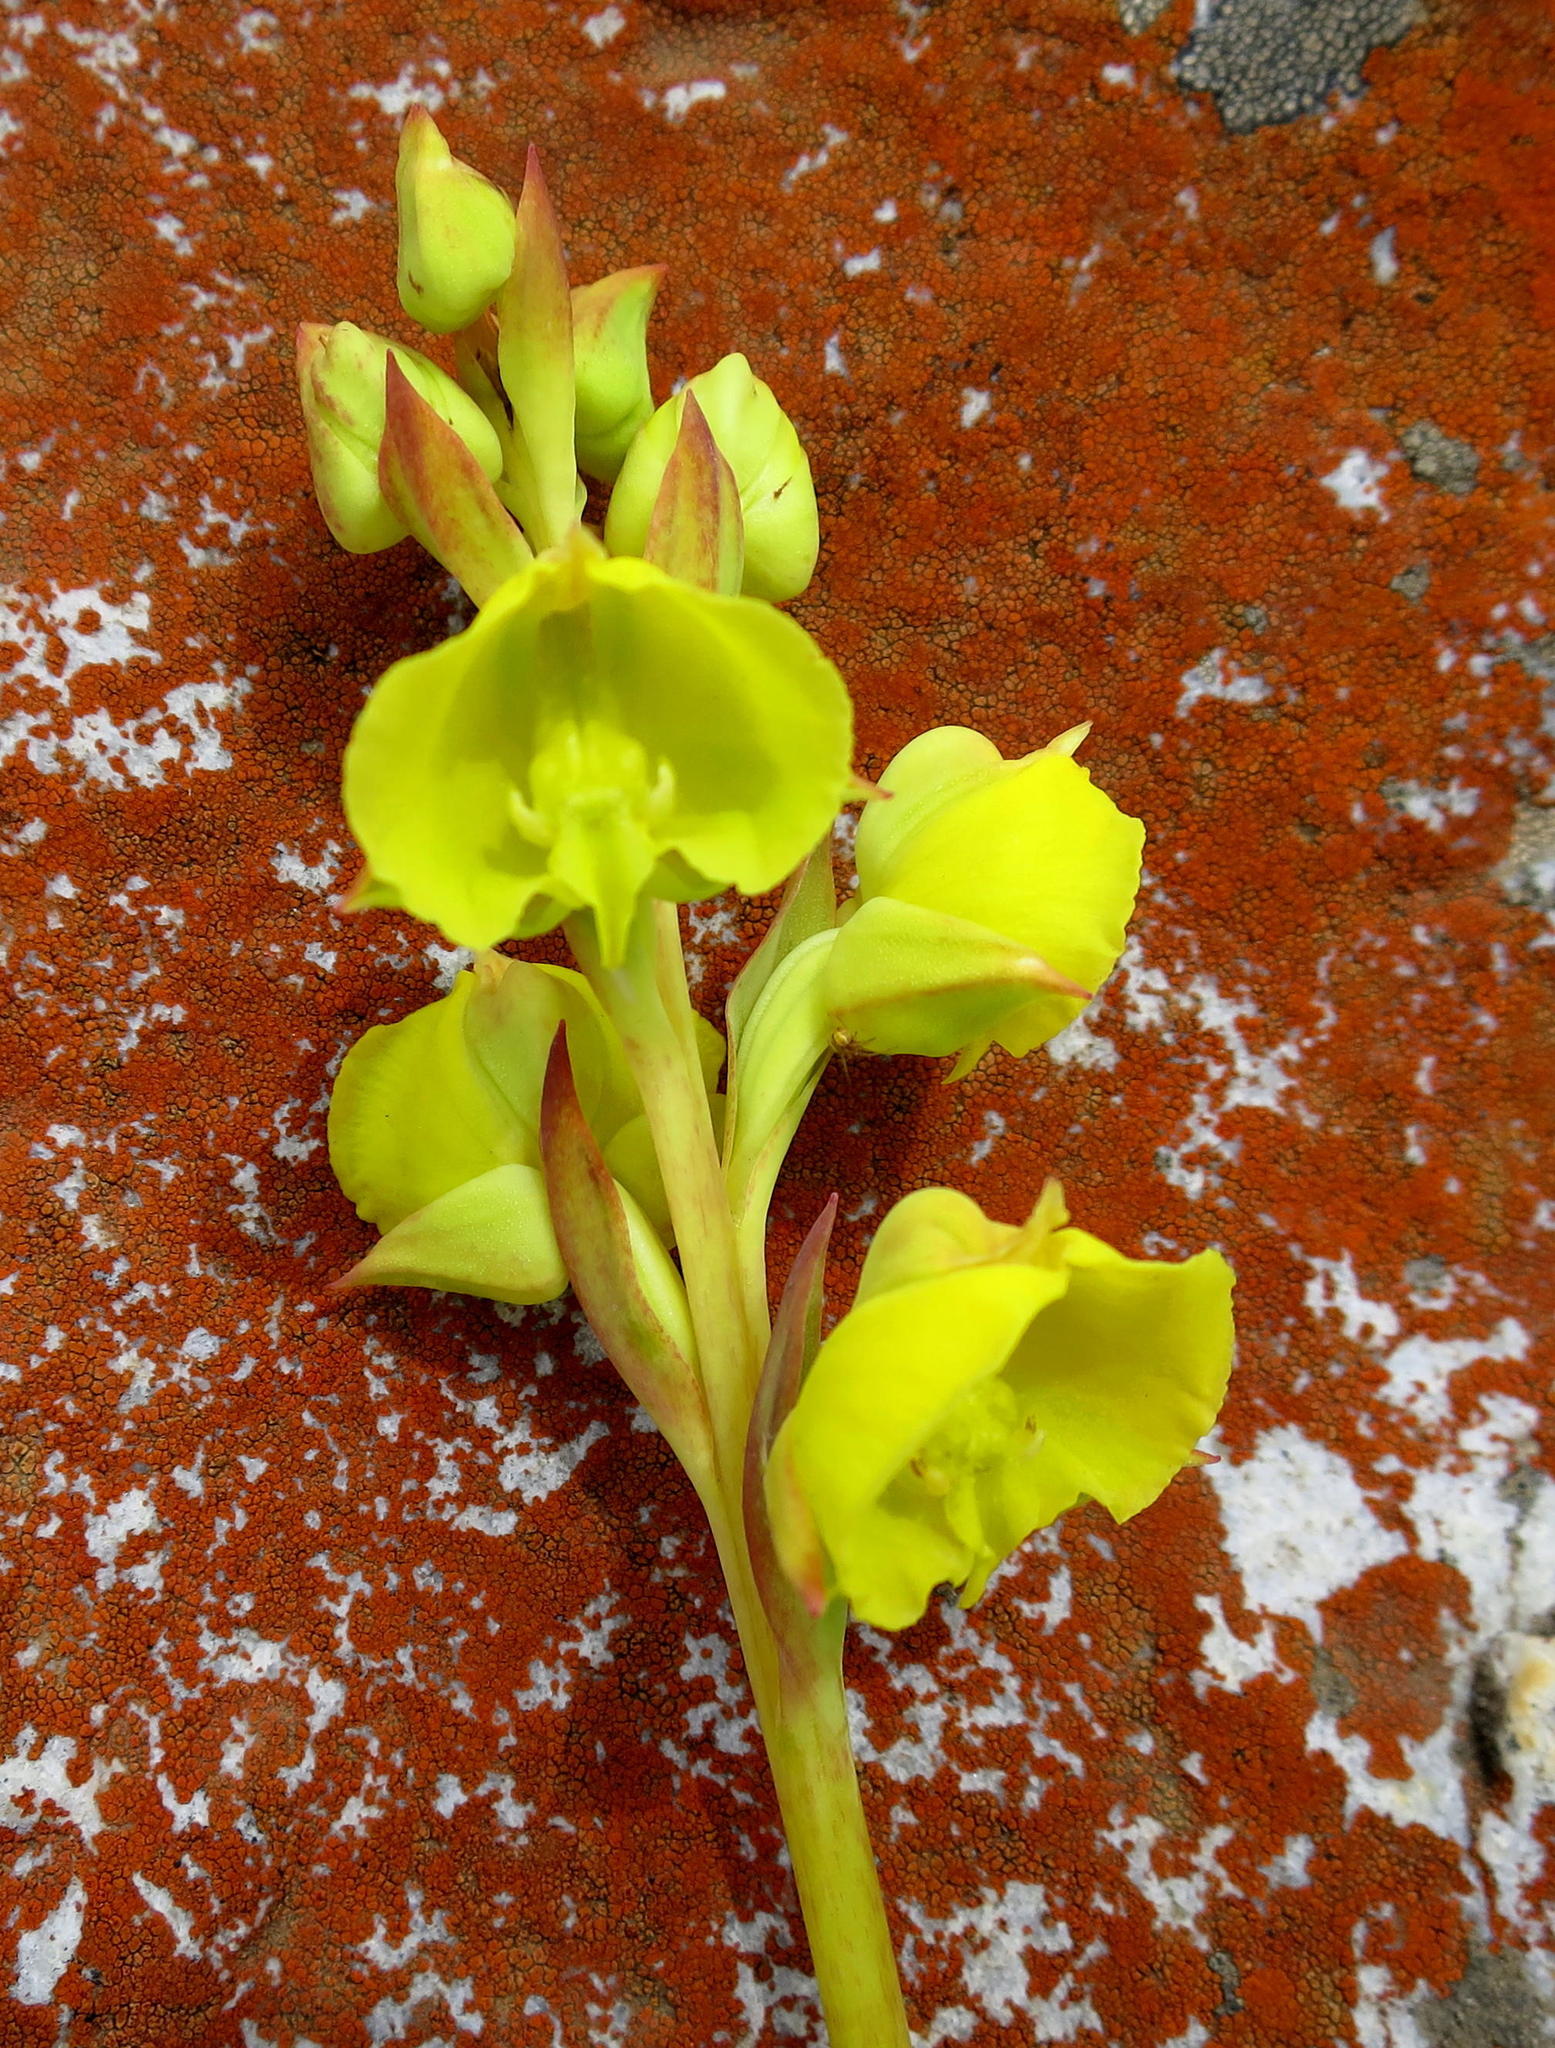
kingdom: Plantae
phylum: Tracheophyta
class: Liliopsida
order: Asparagales
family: Orchidaceae
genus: Pterygodium
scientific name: Pterygodium acutifolium
